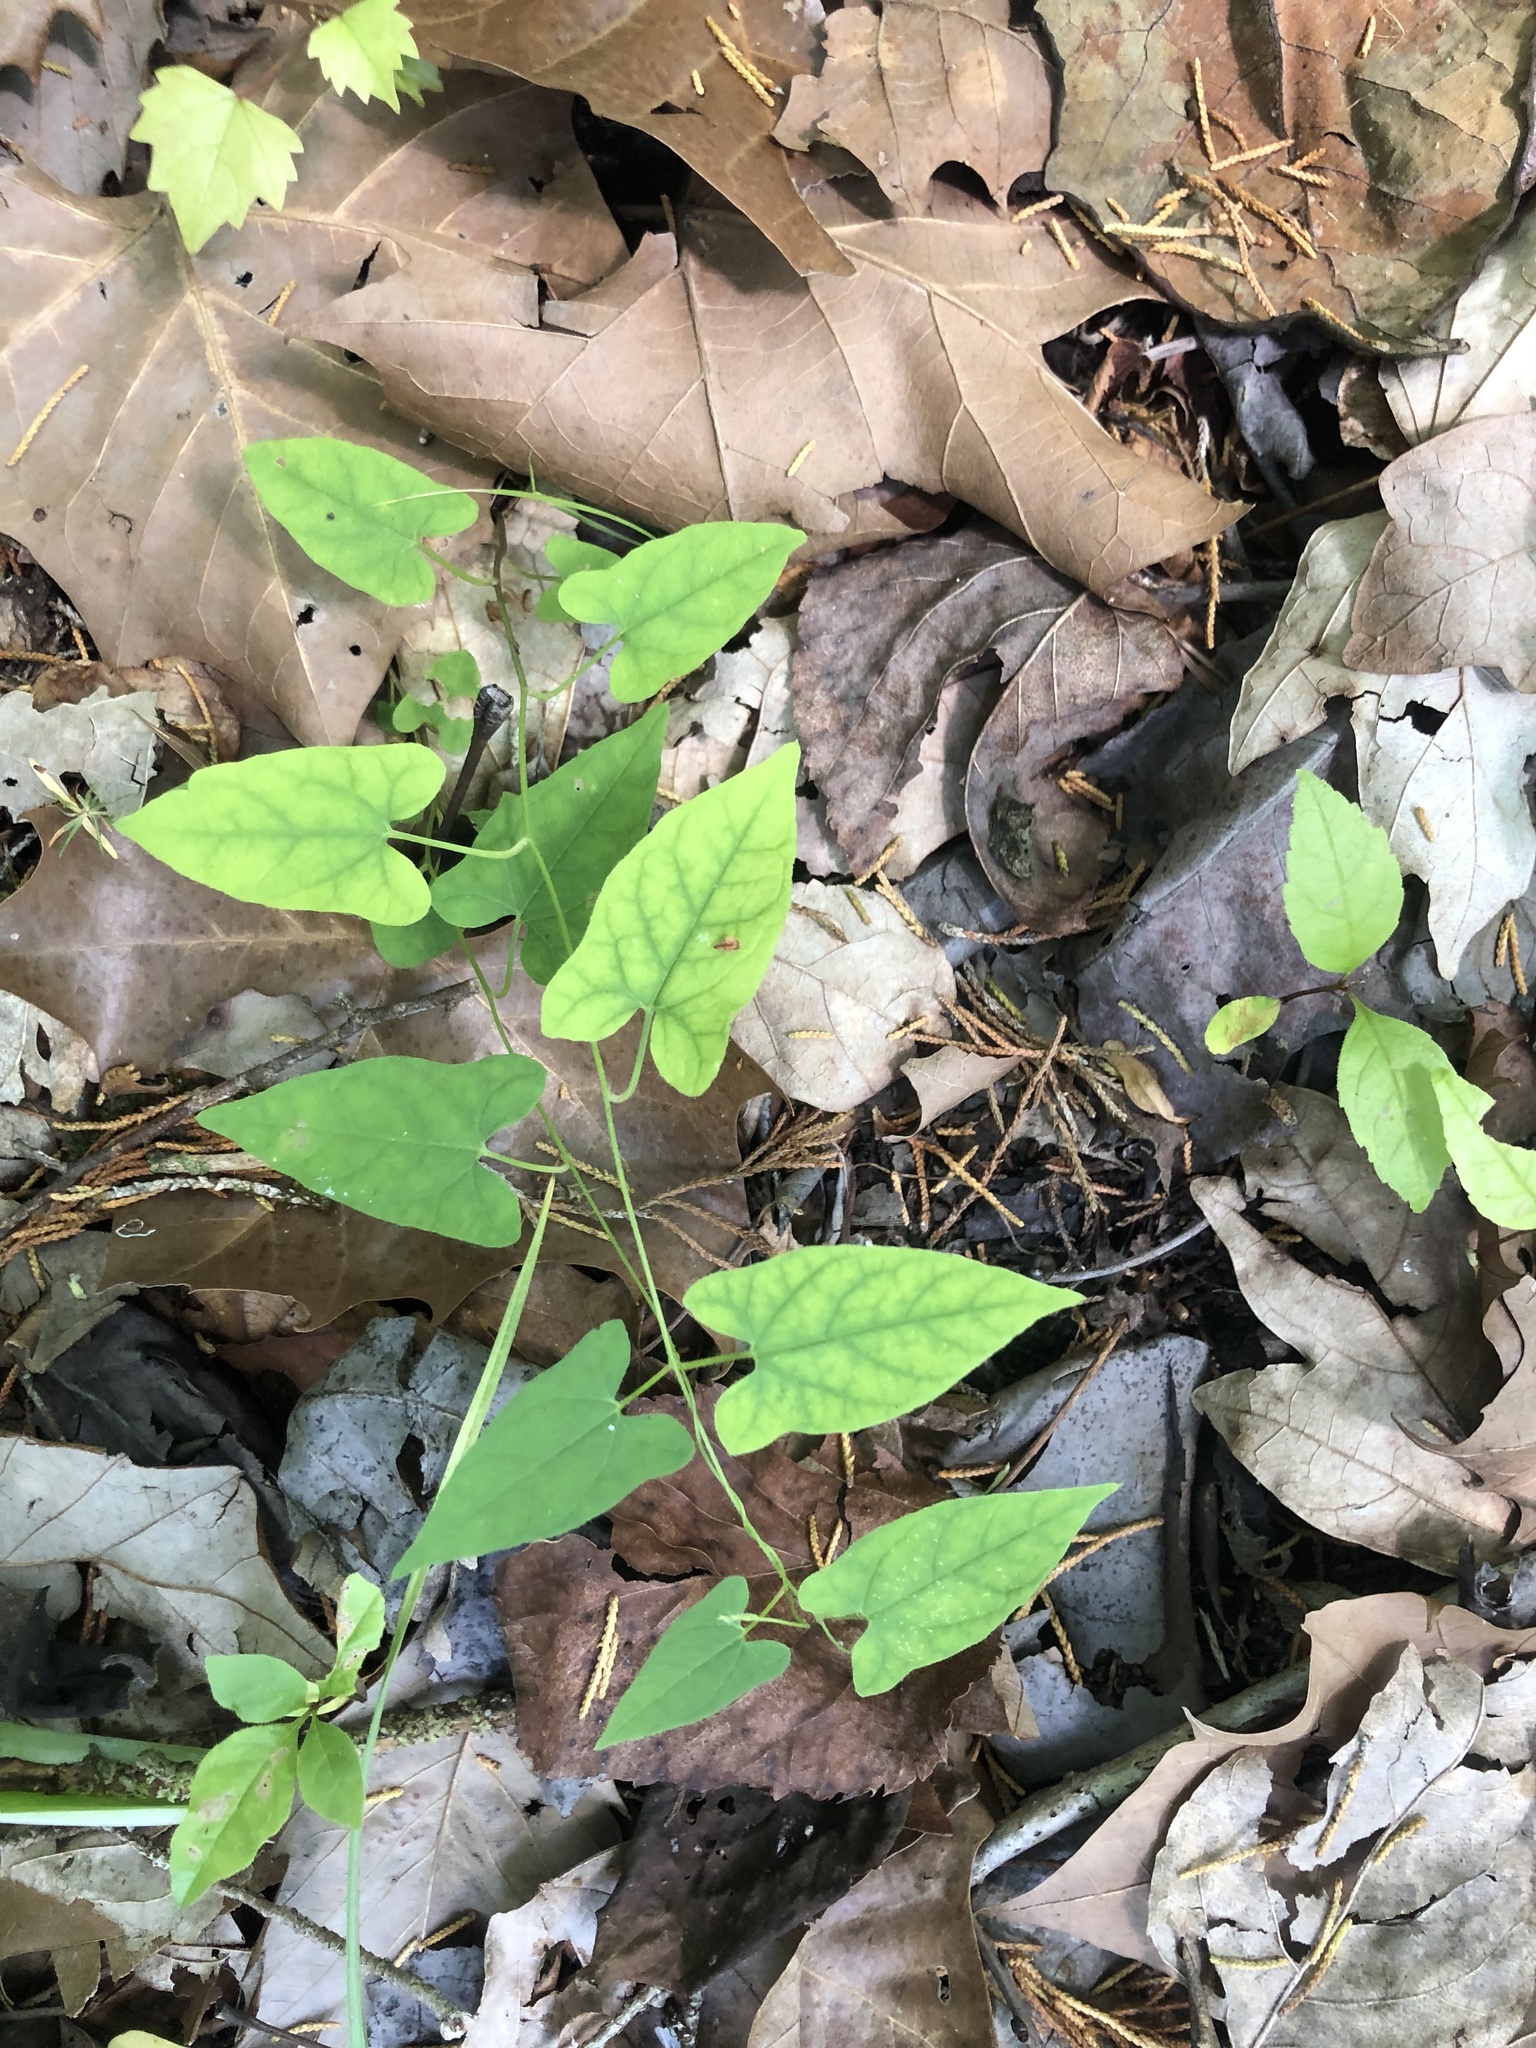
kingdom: Plantae
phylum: Tracheophyta
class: Magnoliopsida
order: Solanales
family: Convolvulaceae
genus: Calystegia
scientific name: Calystegia catesbeiana
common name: Catesby's false bindweed
